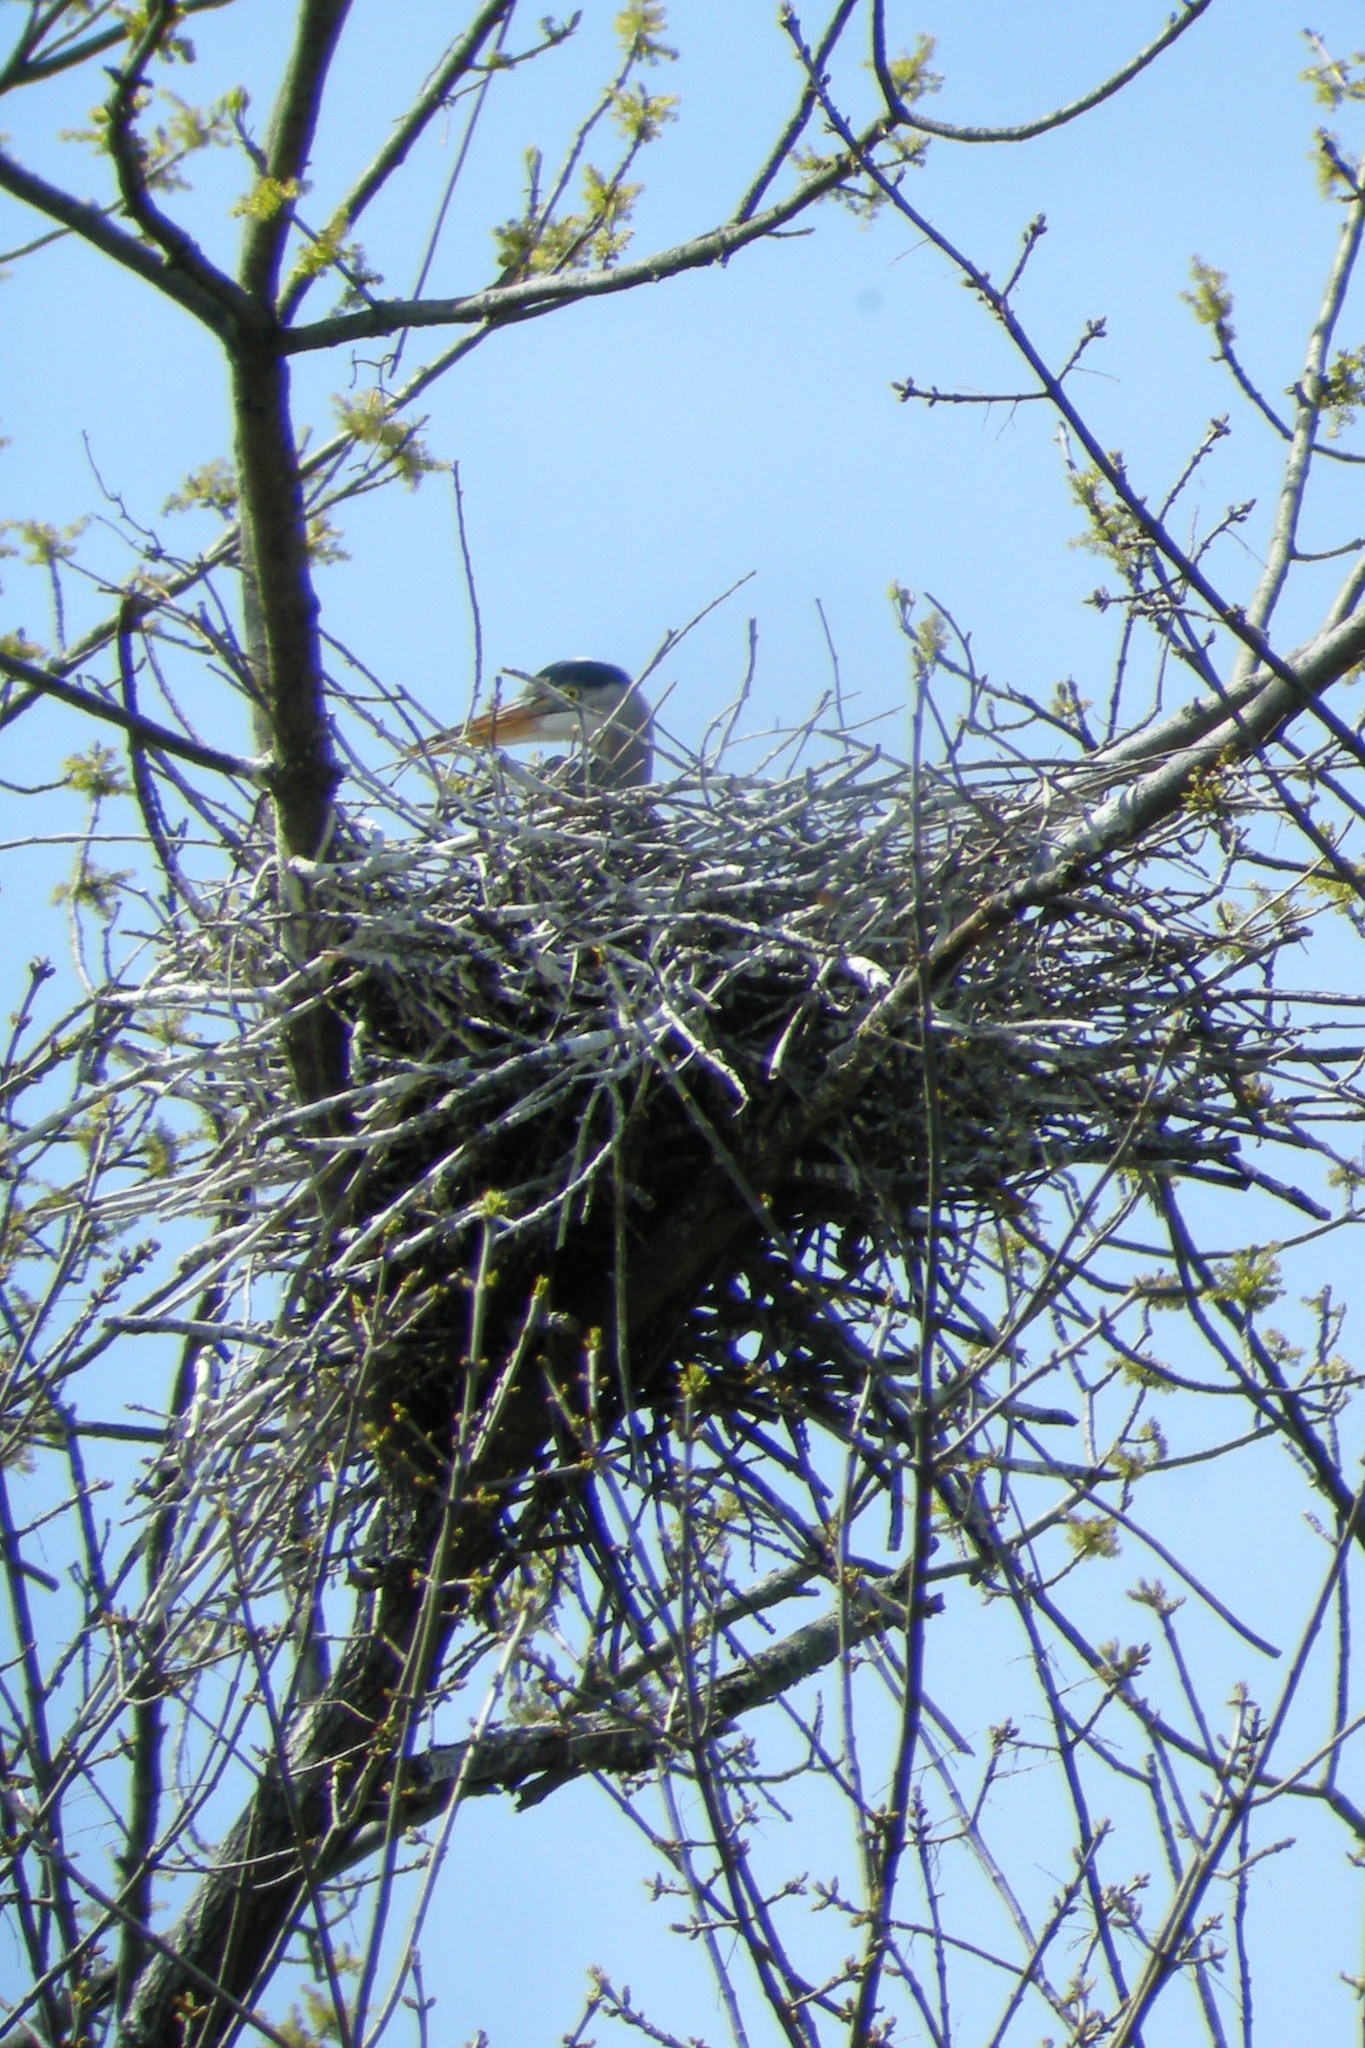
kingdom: Animalia
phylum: Chordata
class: Aves
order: Pelecaniformes
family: Ardeidae
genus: Ardea
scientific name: Ardea herodias
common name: Great blue heron
